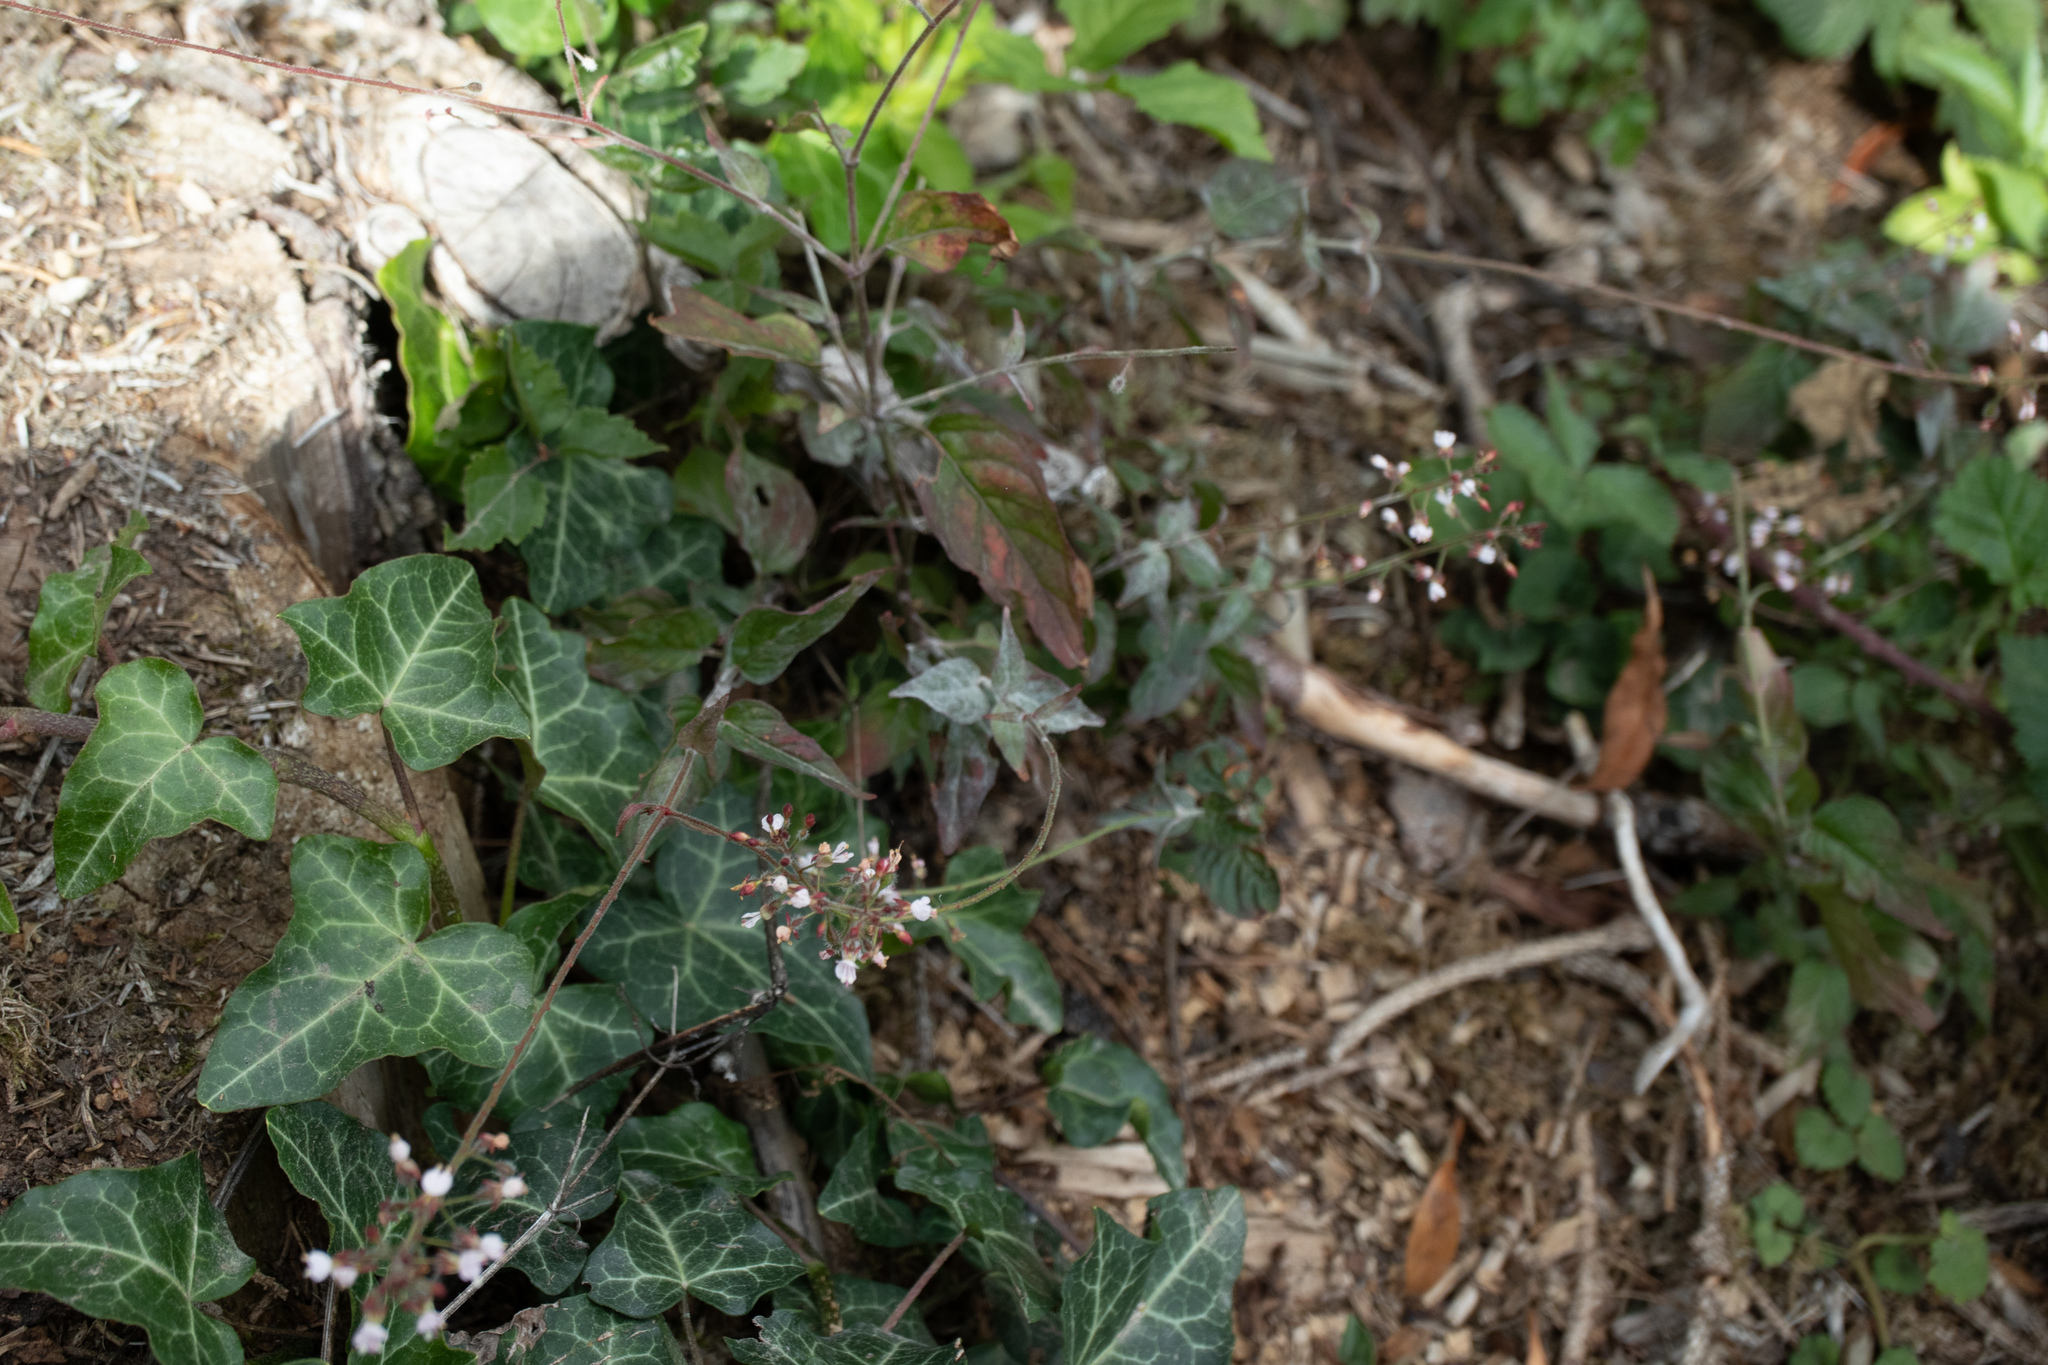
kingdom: Plantae
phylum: Tracheophyta
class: Magnoliopsida
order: Myrtales
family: Onagraceae
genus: Circaea
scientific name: Circaea lutetiana
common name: Enchanter's-nightshade
